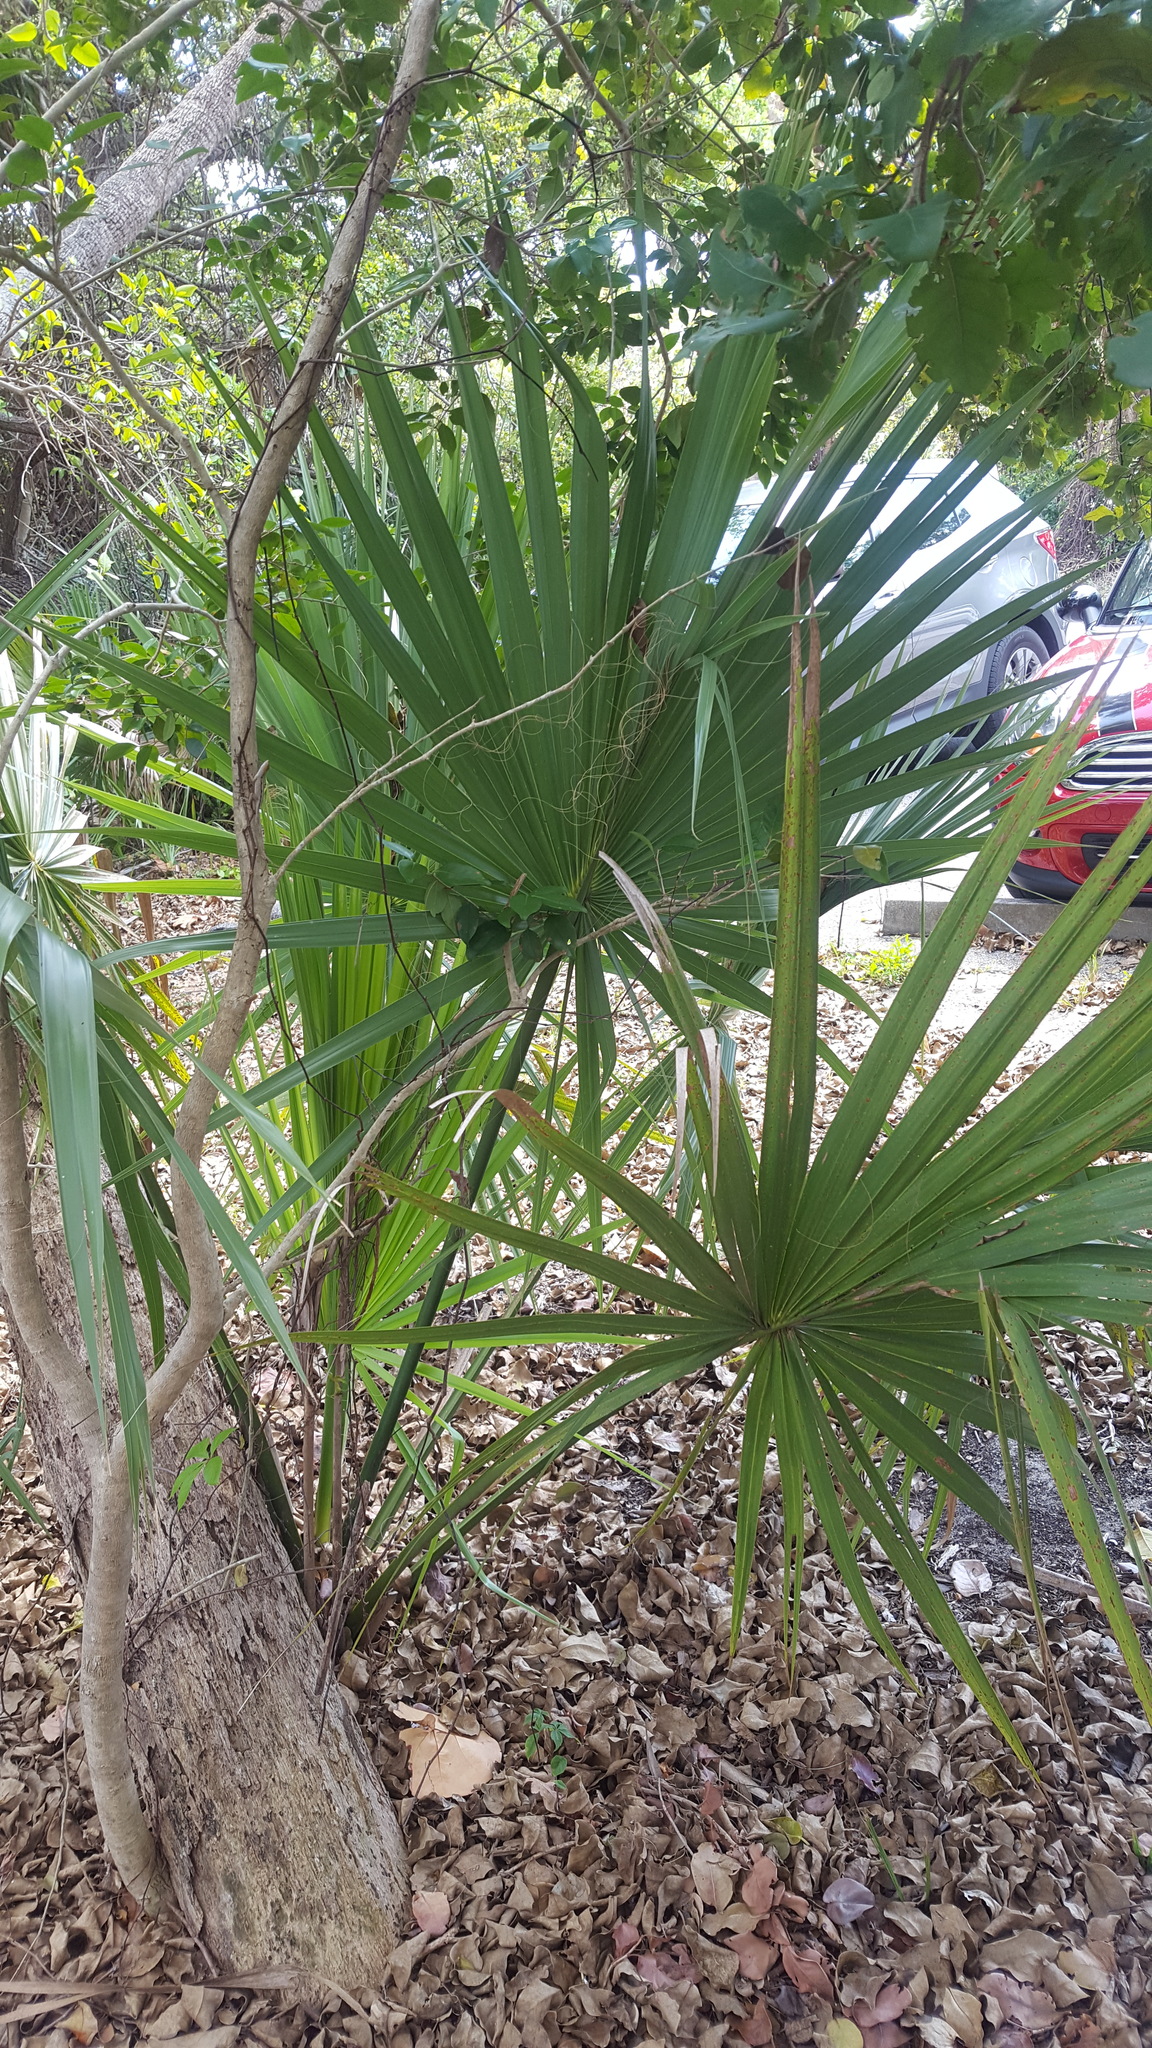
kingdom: Plantae
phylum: Tracheophyta
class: Liliopsida
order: Arecales
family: Arecaceae
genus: Sabal
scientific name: Sabal palmetto
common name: Blue palmetto
